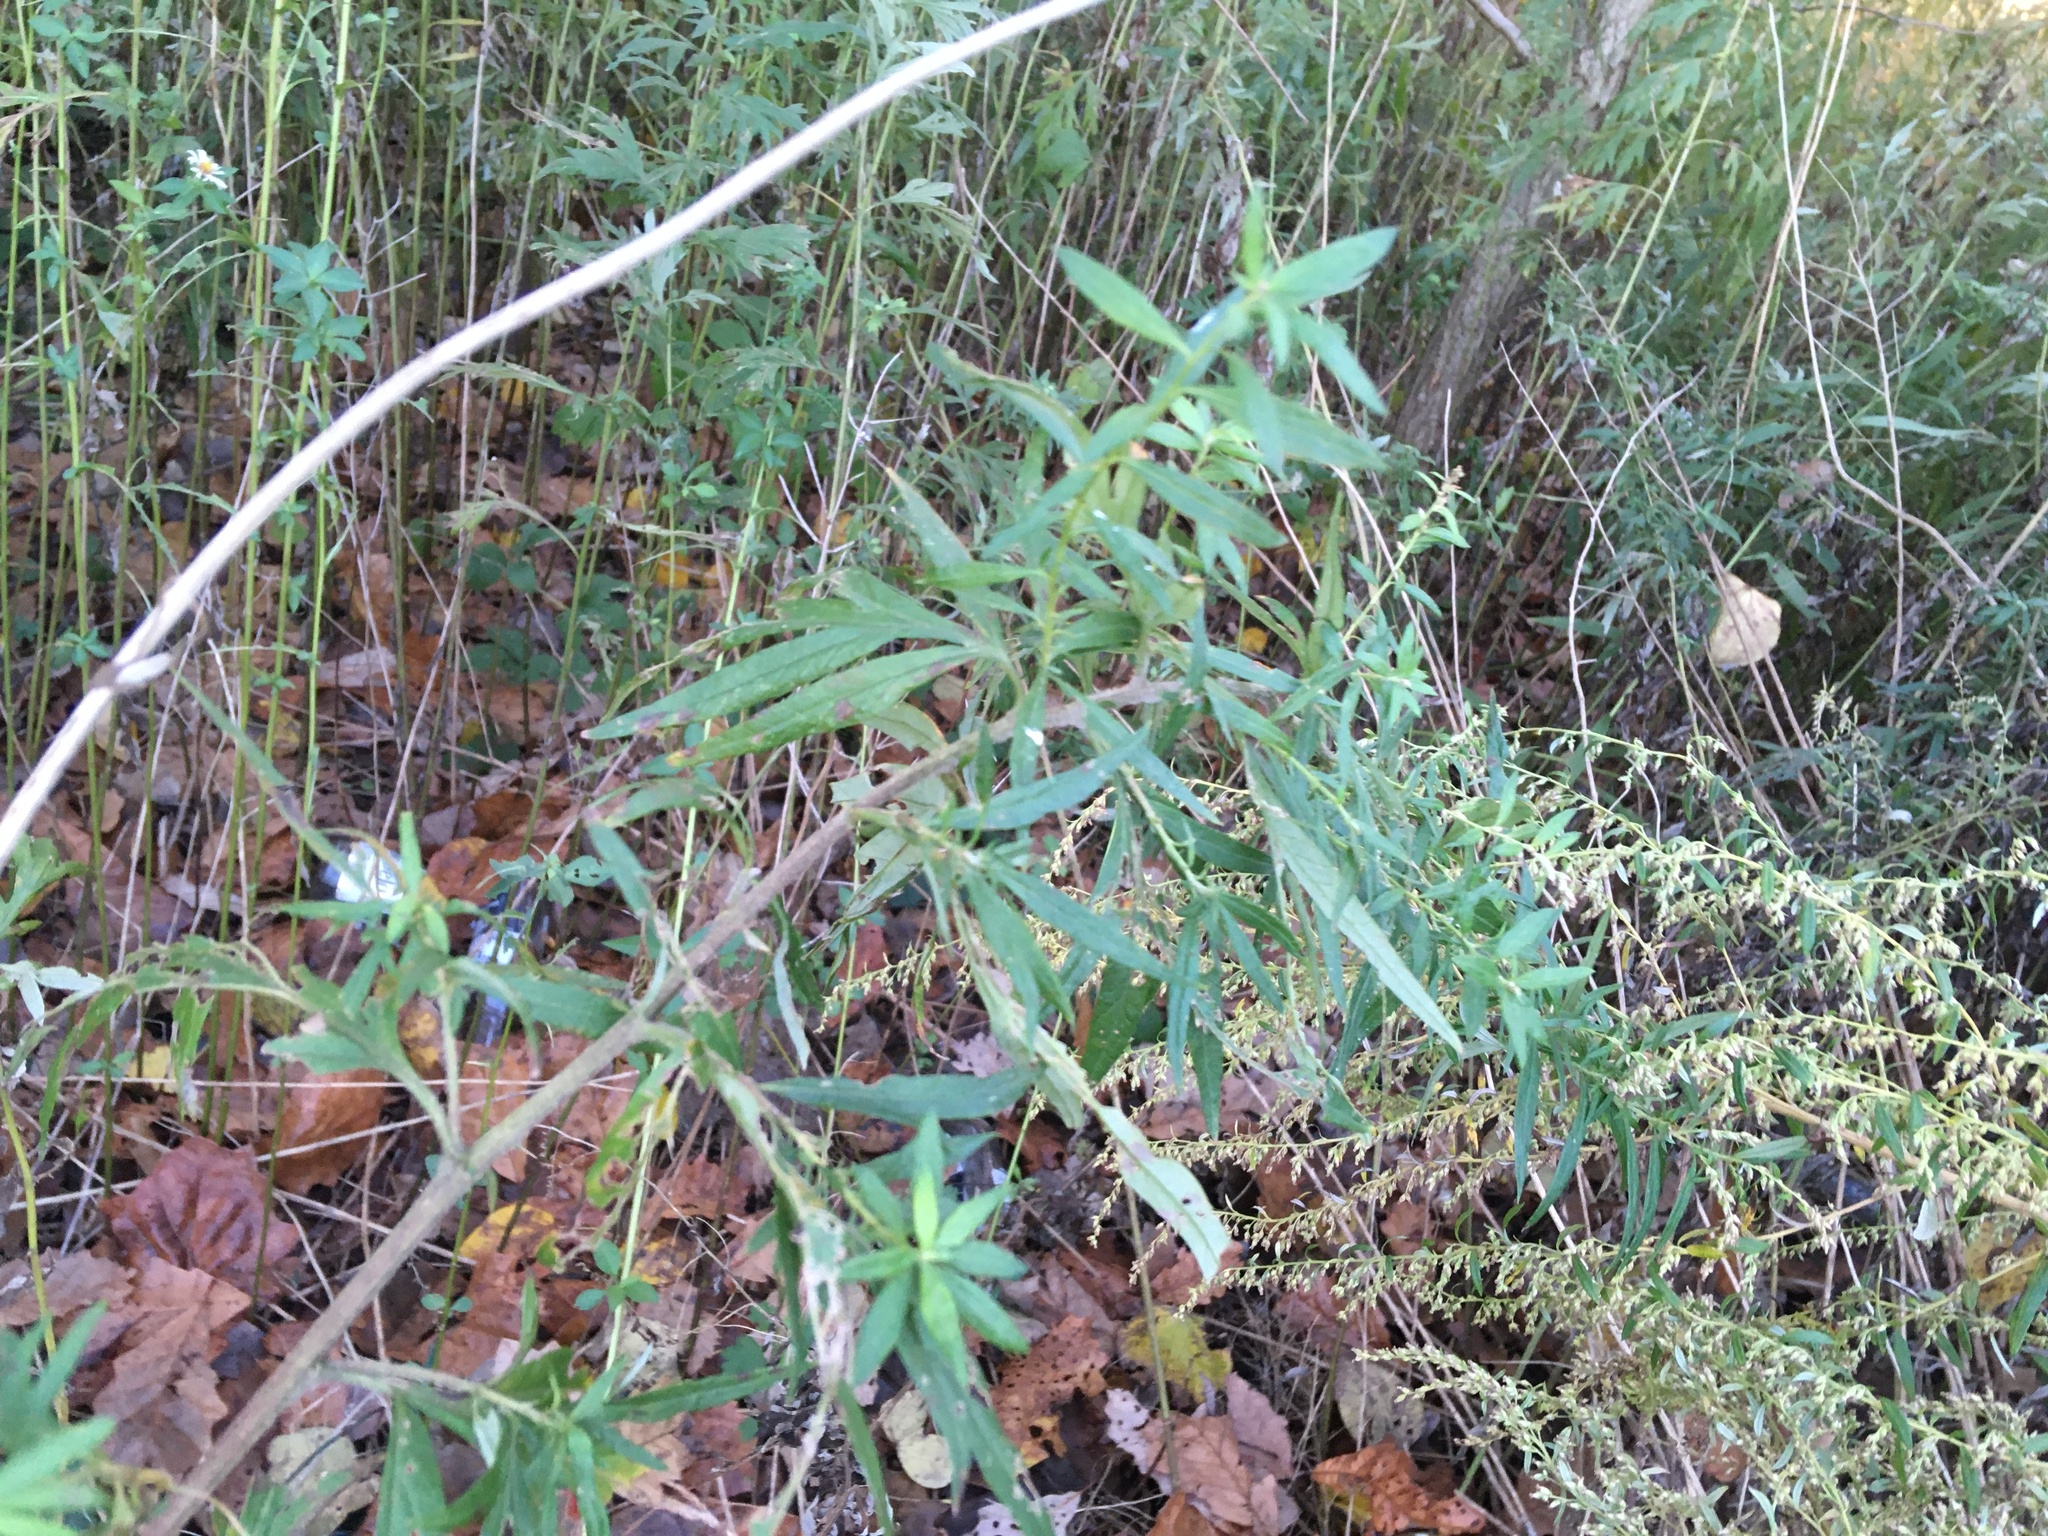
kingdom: Plantae
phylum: Tracheophyta
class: Magnoliopsida
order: Asterales
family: Asteraceae
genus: Artemisia
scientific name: Artemisia vulgaris
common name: Mugwort
